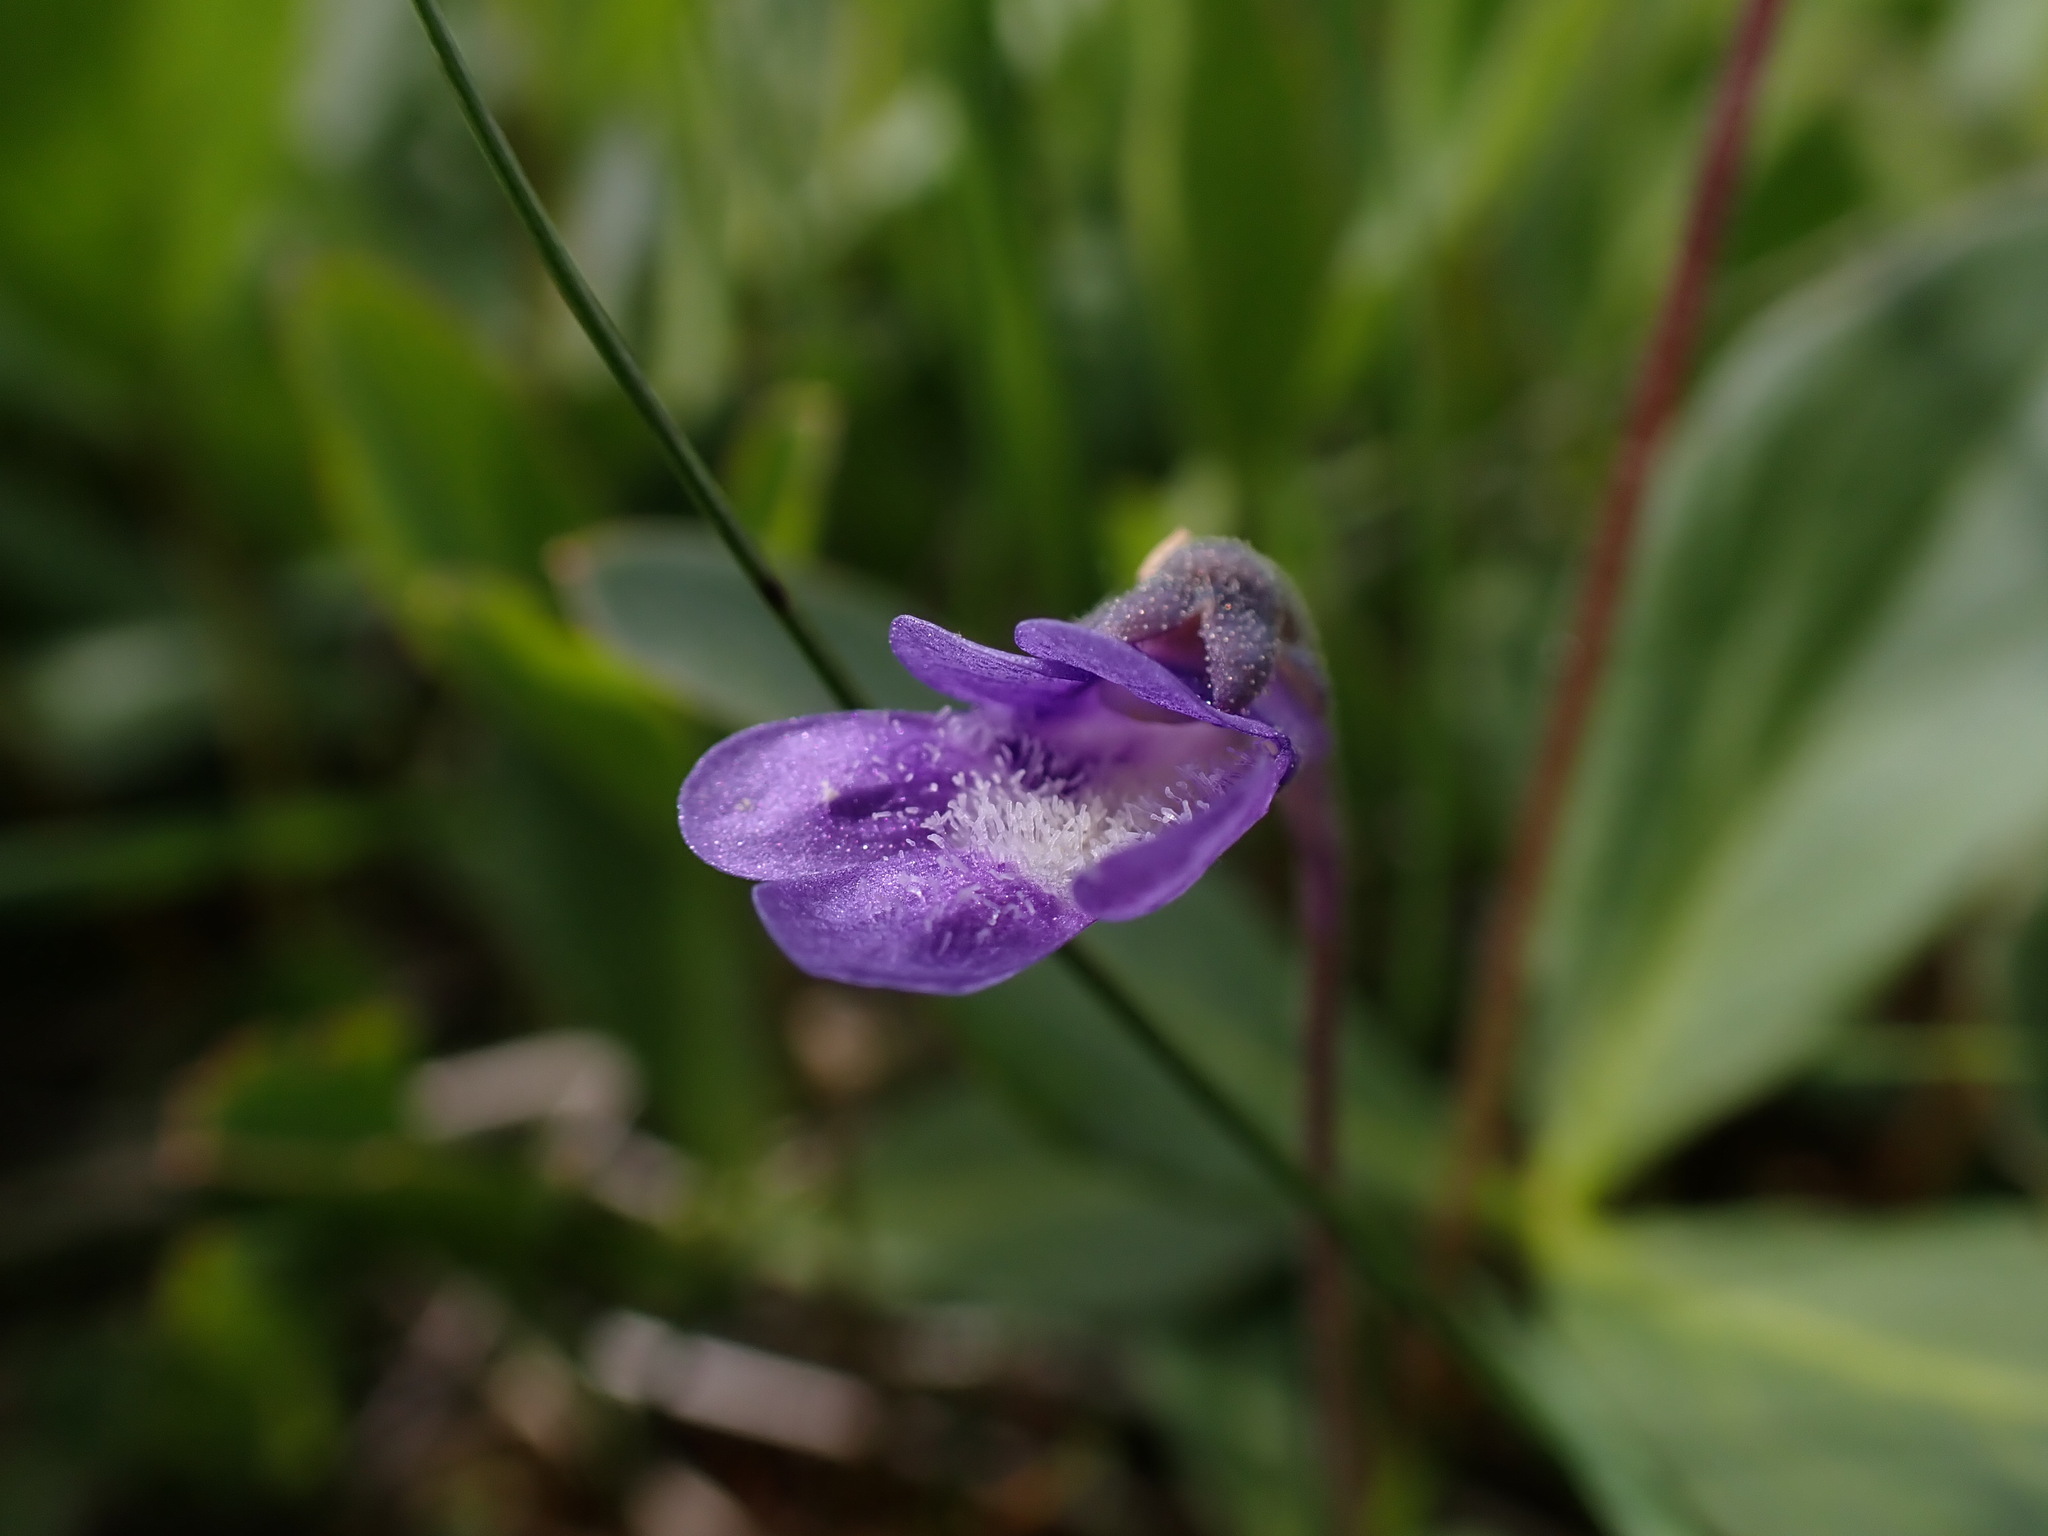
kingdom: Plantae
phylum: Tracheophyta
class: Magnoliopsida
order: Lamiales
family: Lentibulariaceae
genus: Pinguicula
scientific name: Pinguicula vulgaris
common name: Common butterwort
